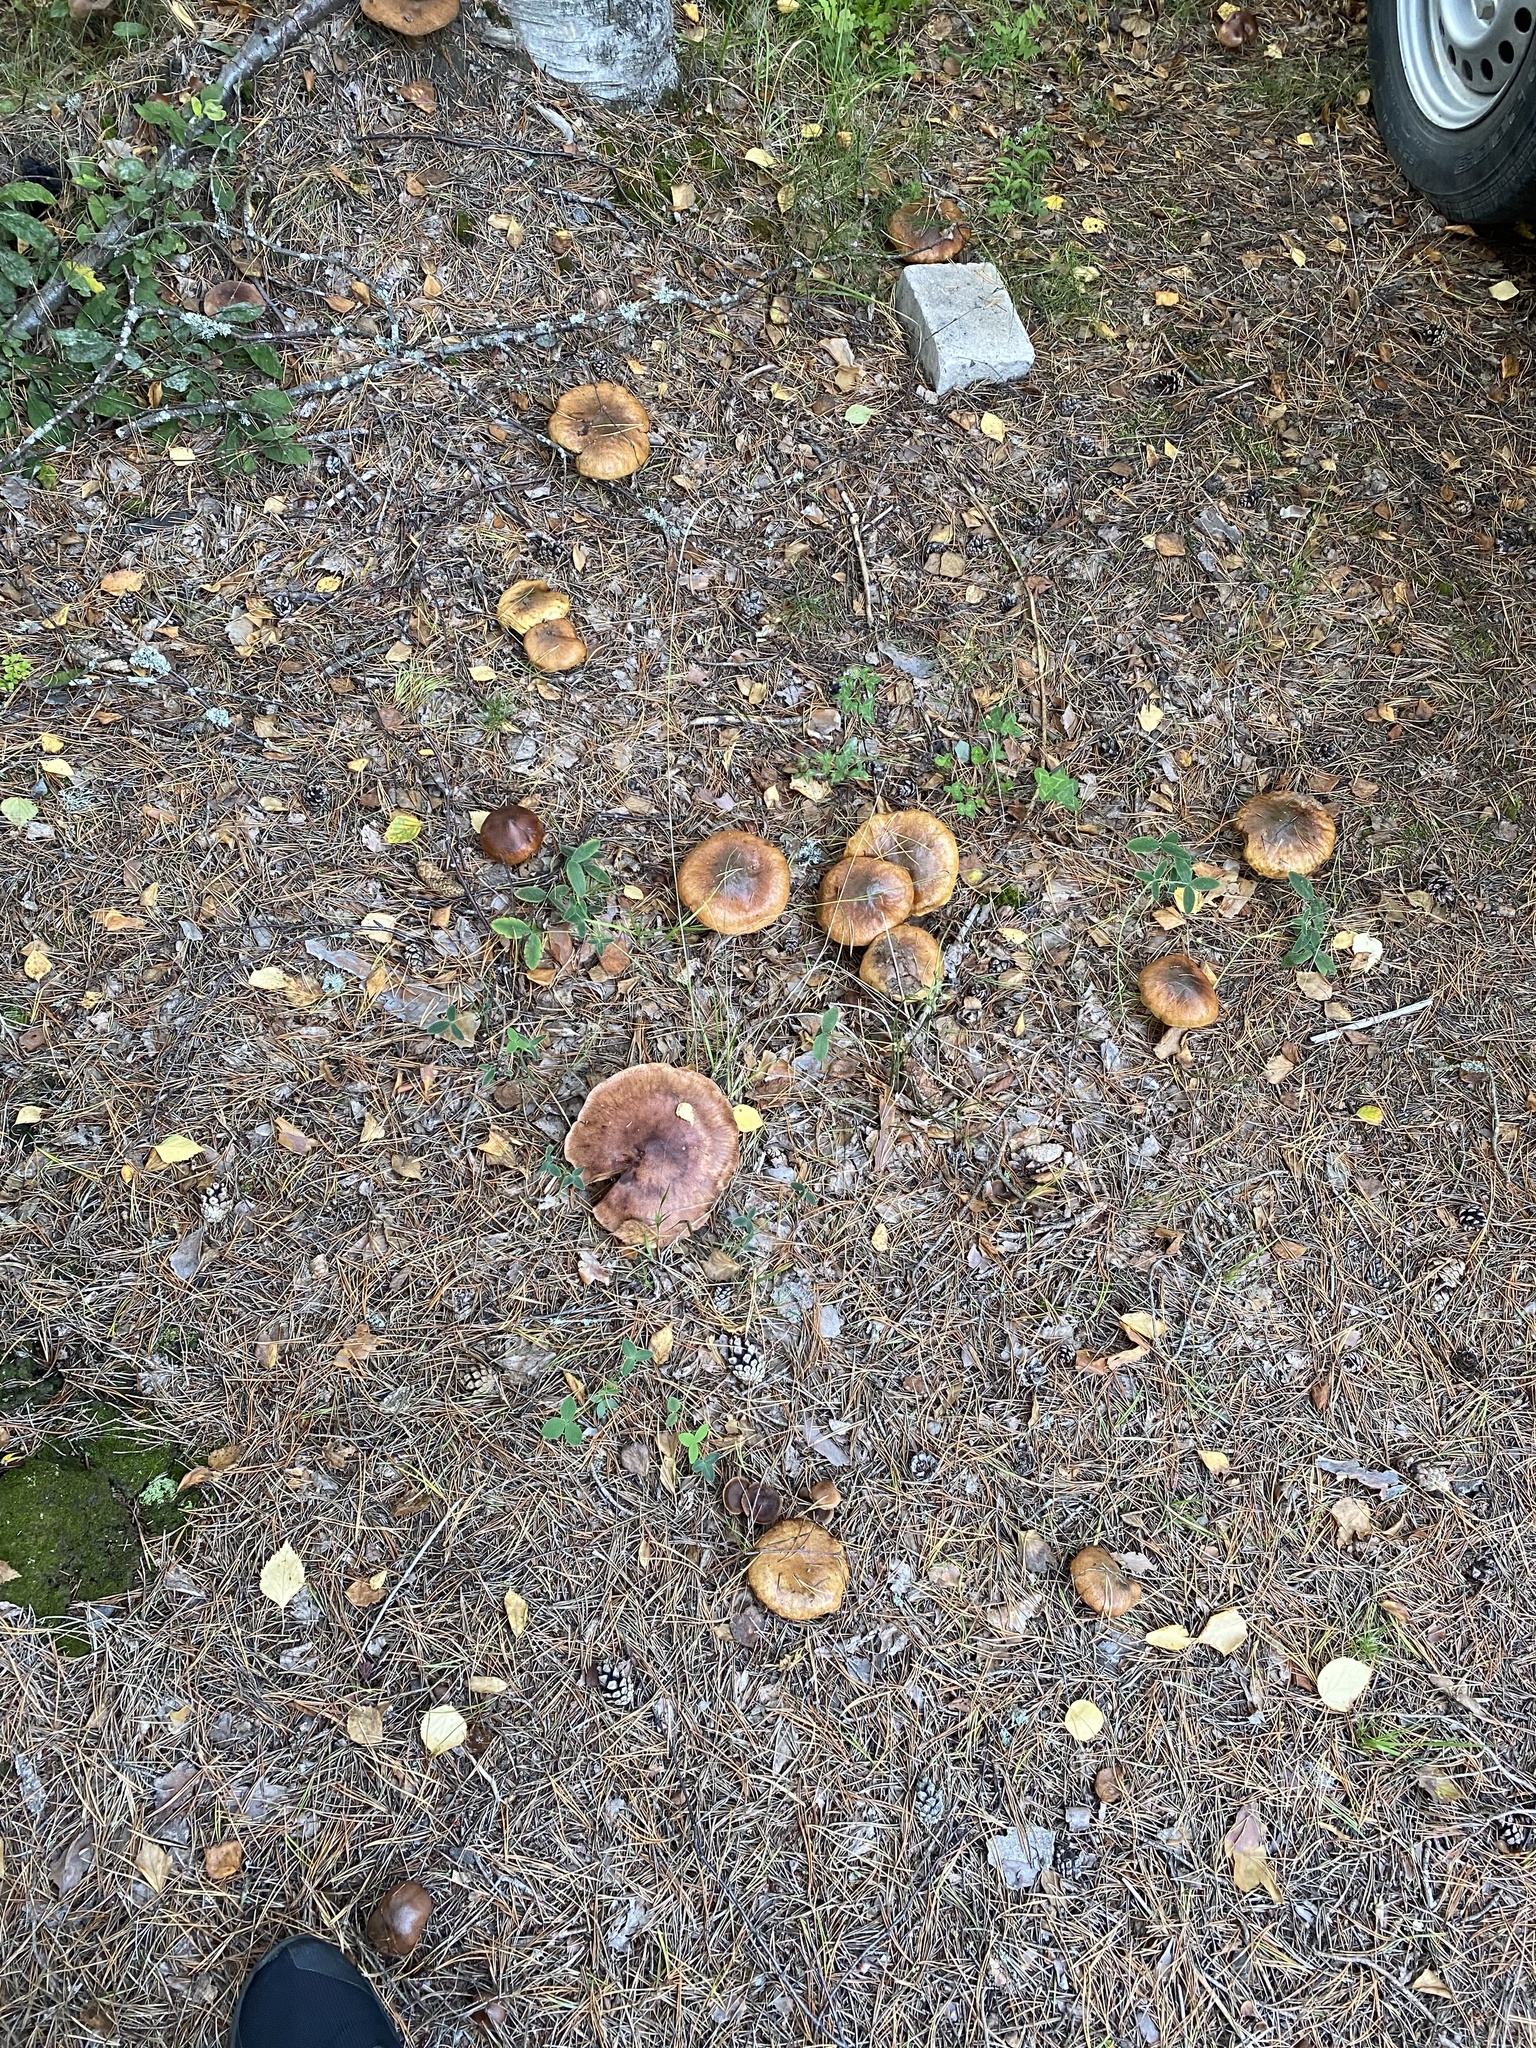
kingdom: Fungi
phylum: Basidiomycota
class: Agaricomycetes
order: Boletales
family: Suillaceae
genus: Suillus
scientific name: Suillus luteus
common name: Slippery jack
